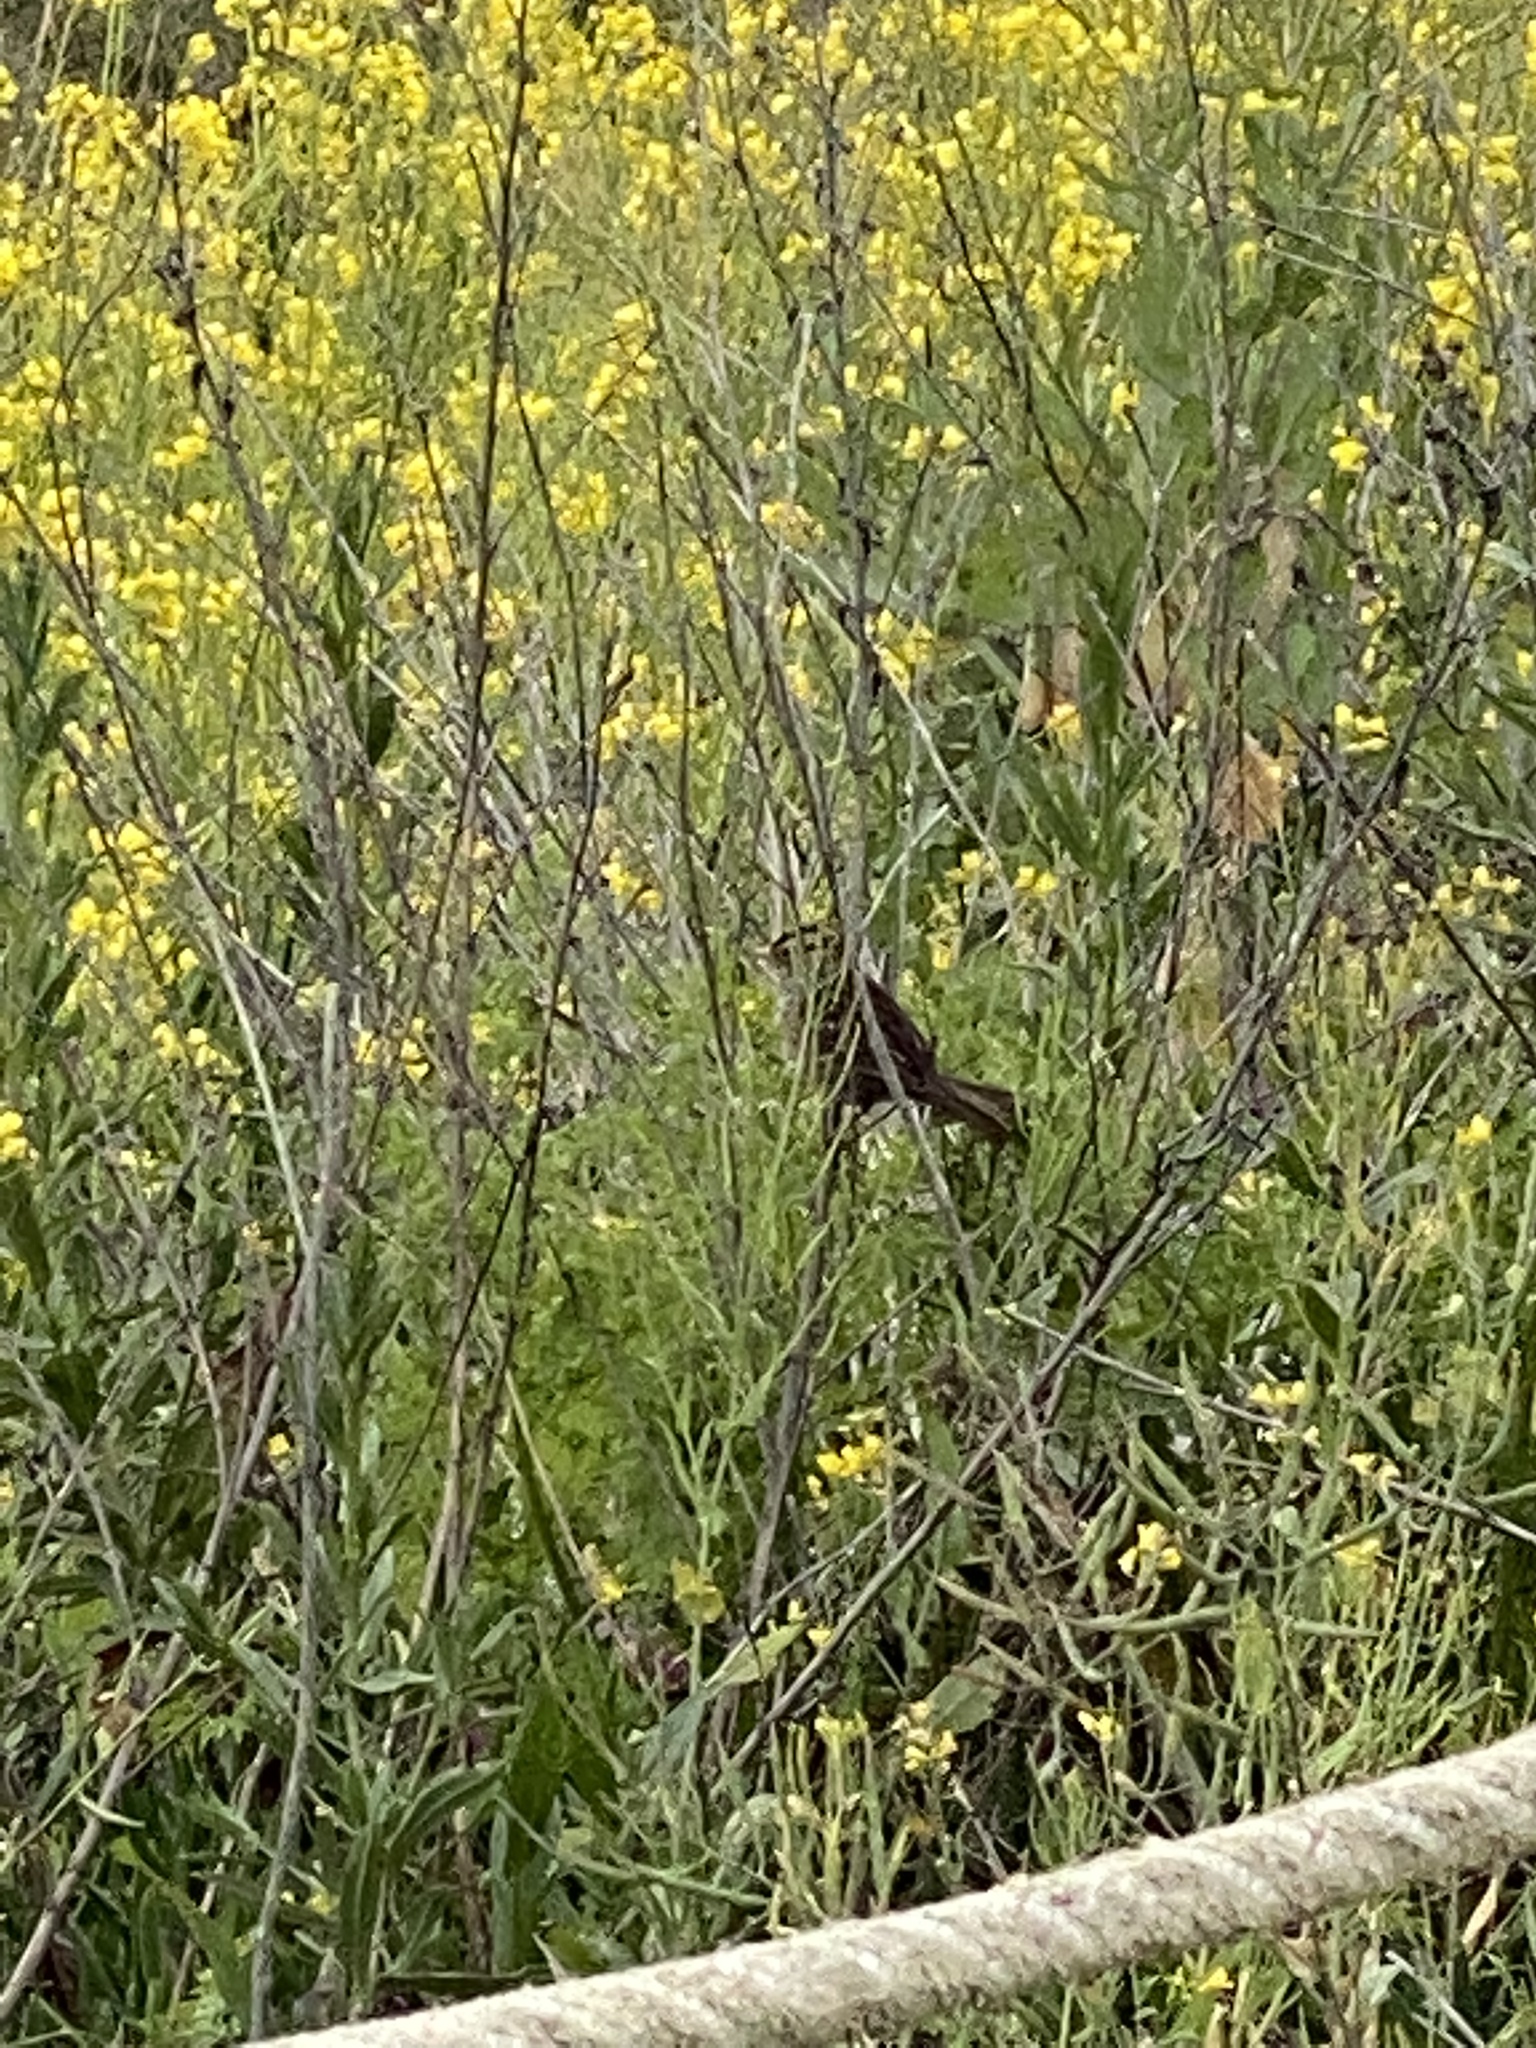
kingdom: Animalia
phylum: Chordata
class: Aves
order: Passeriformes
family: Passerellidae
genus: Zonotrichia
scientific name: Zonotrichia leucophrys
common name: White-crowned sparrow
